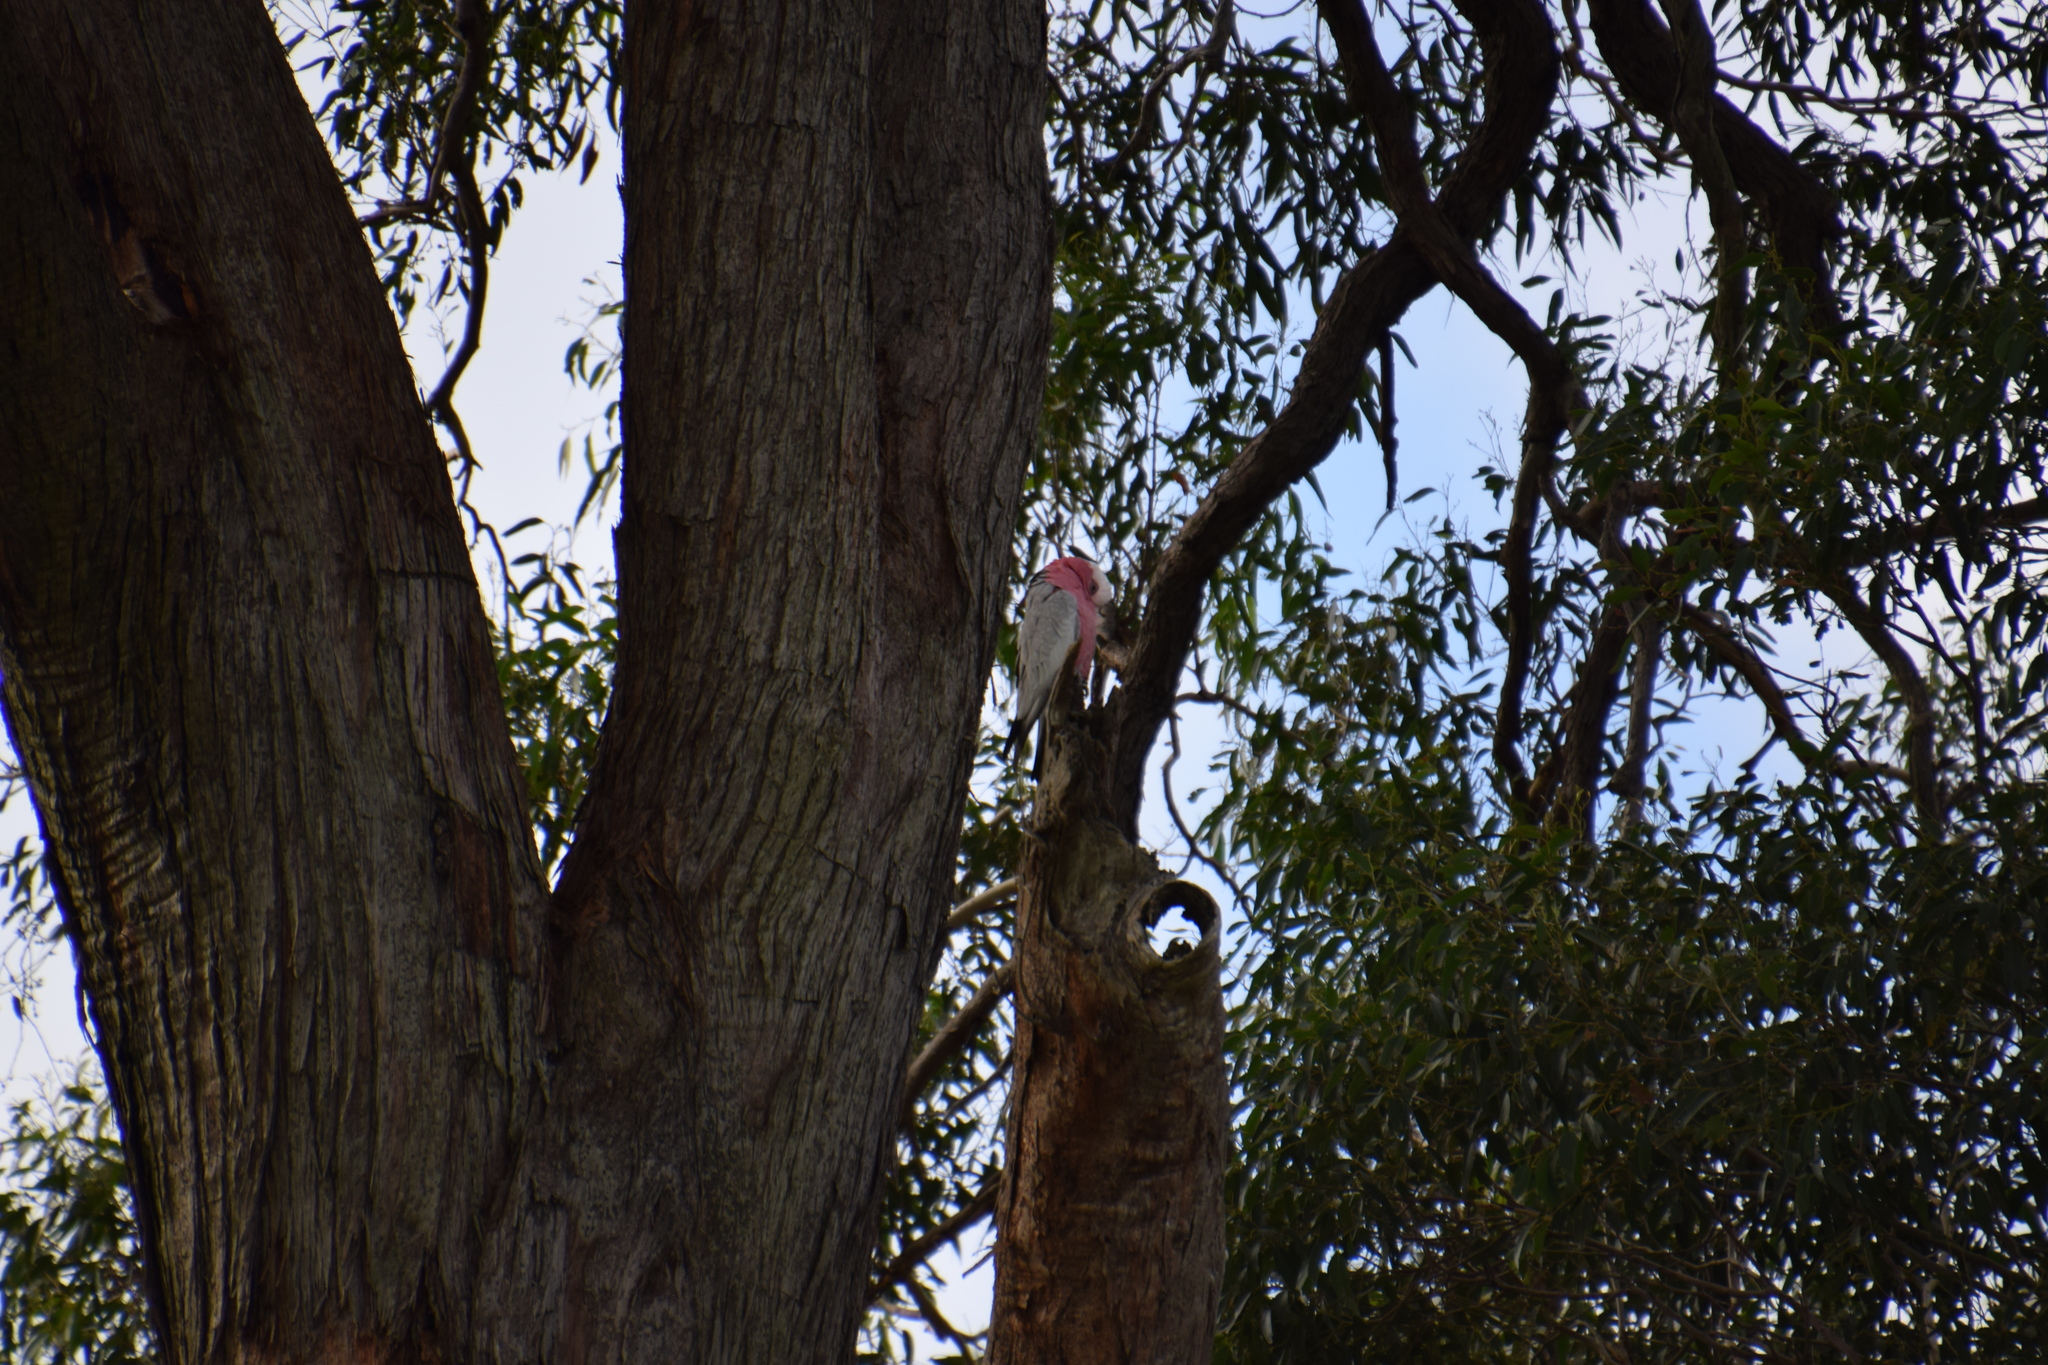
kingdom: Animalia
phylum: Chordata
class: Aves
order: Psittaciformes
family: Psittacidae
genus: Eolophus
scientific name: Eolophus roseicapilla
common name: Galah
